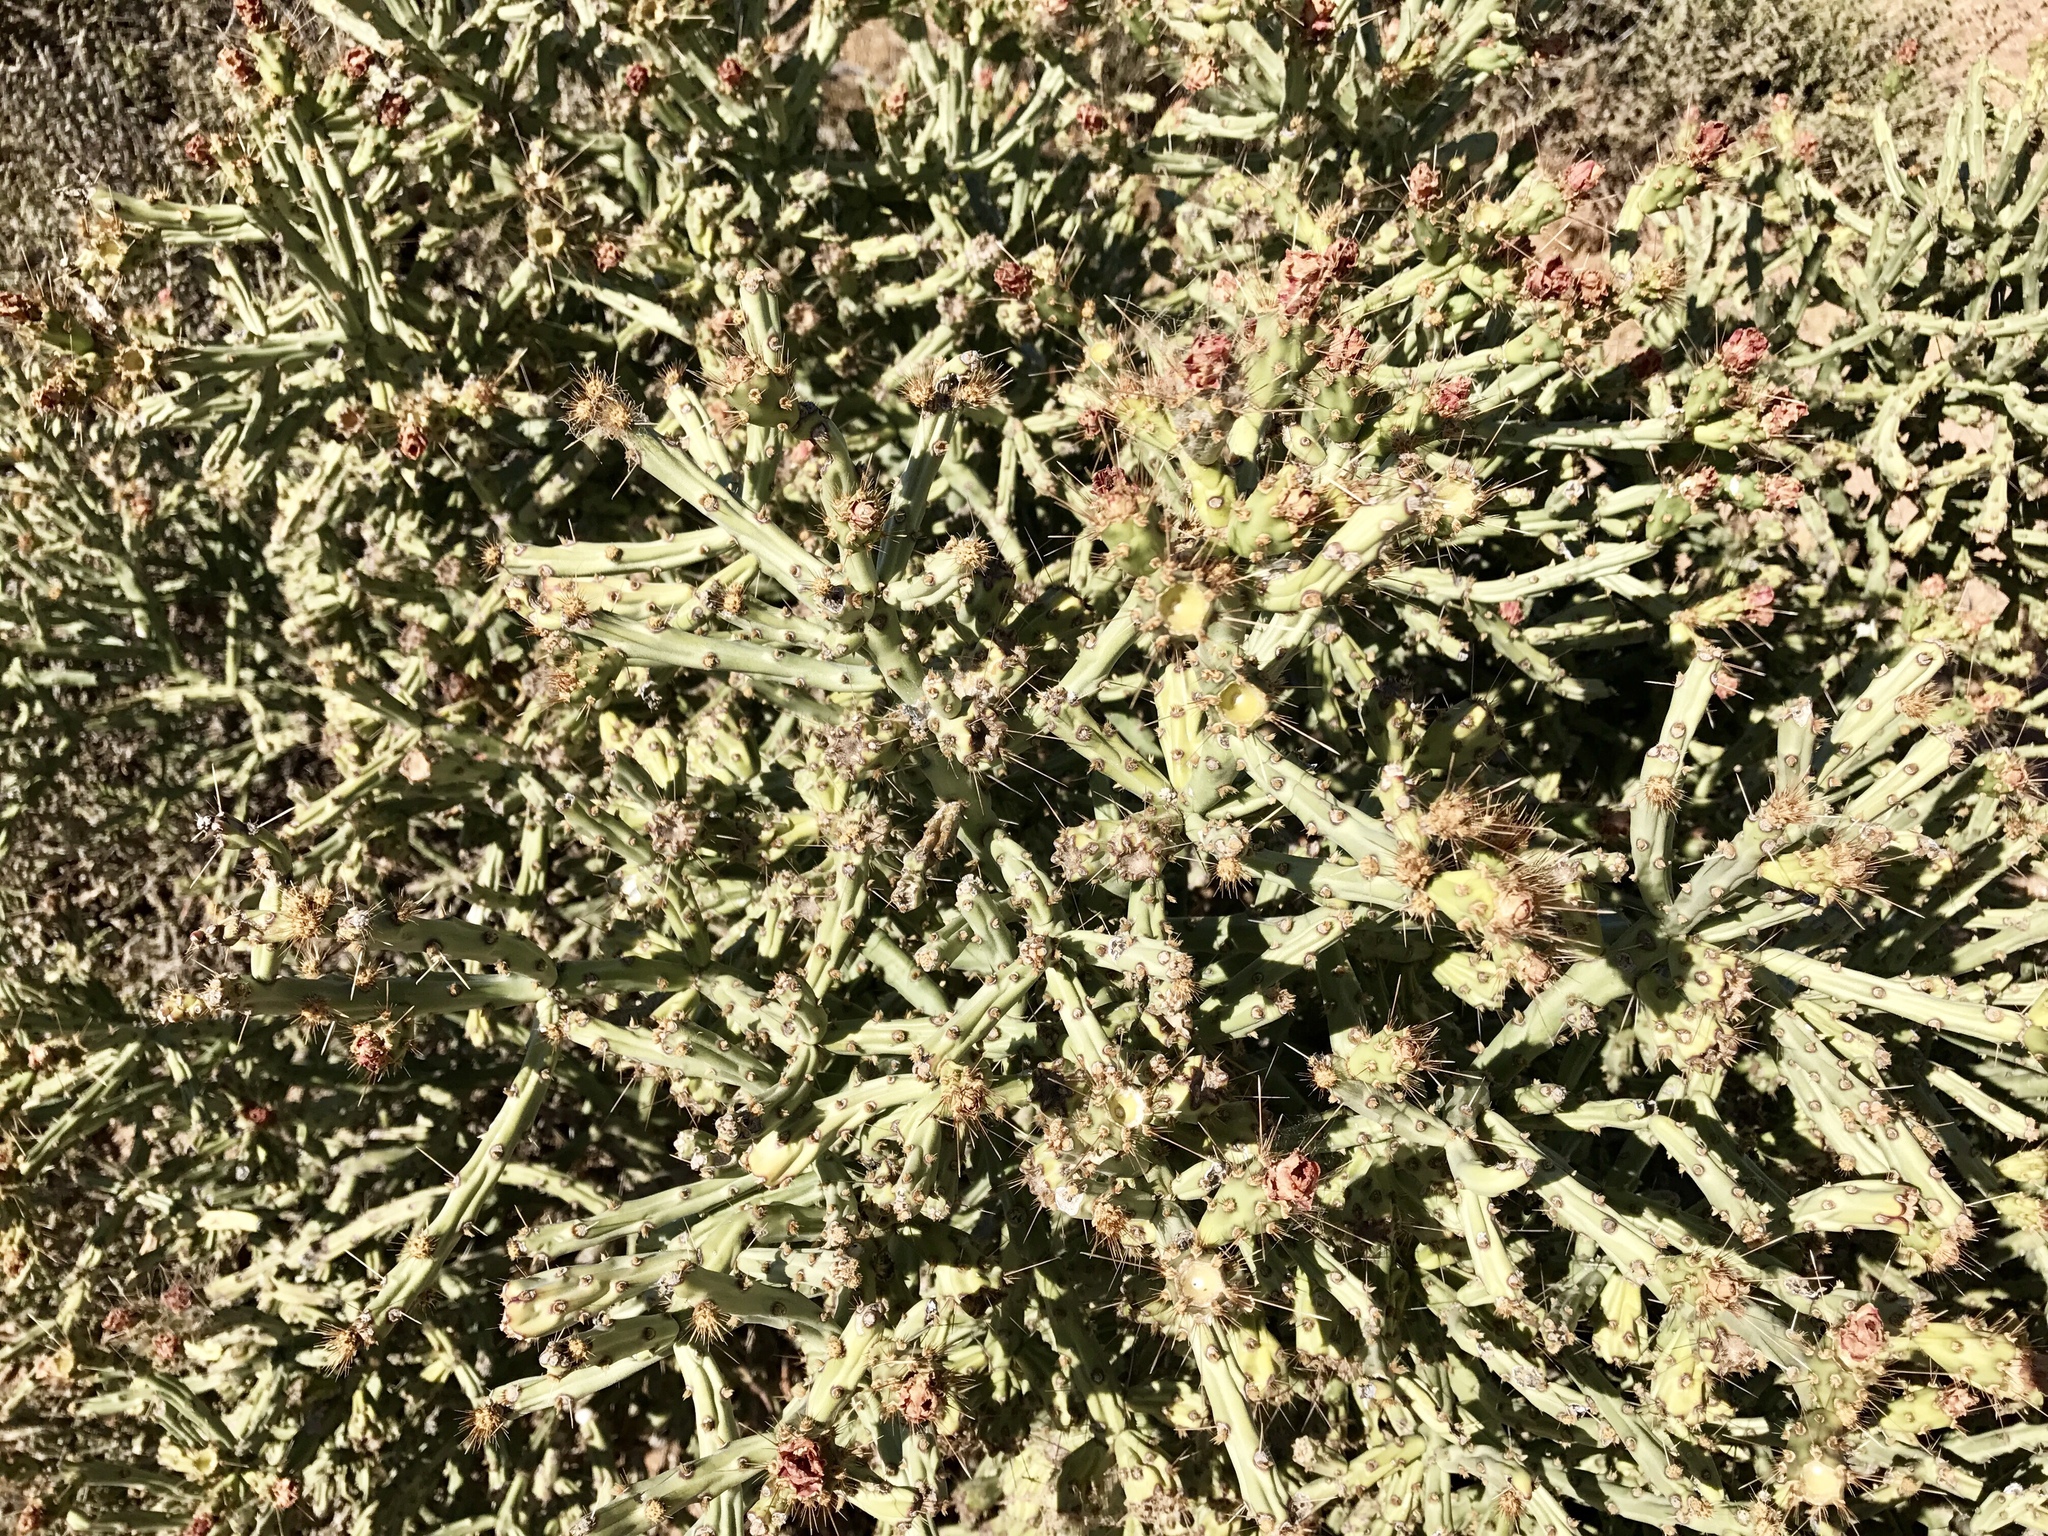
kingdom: Plantae
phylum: Tracheophyta
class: Magnoliopsida
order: Caryophyllales
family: Cactaceae
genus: Cylindropuntia
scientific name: Cylindropuntia arbuscula
